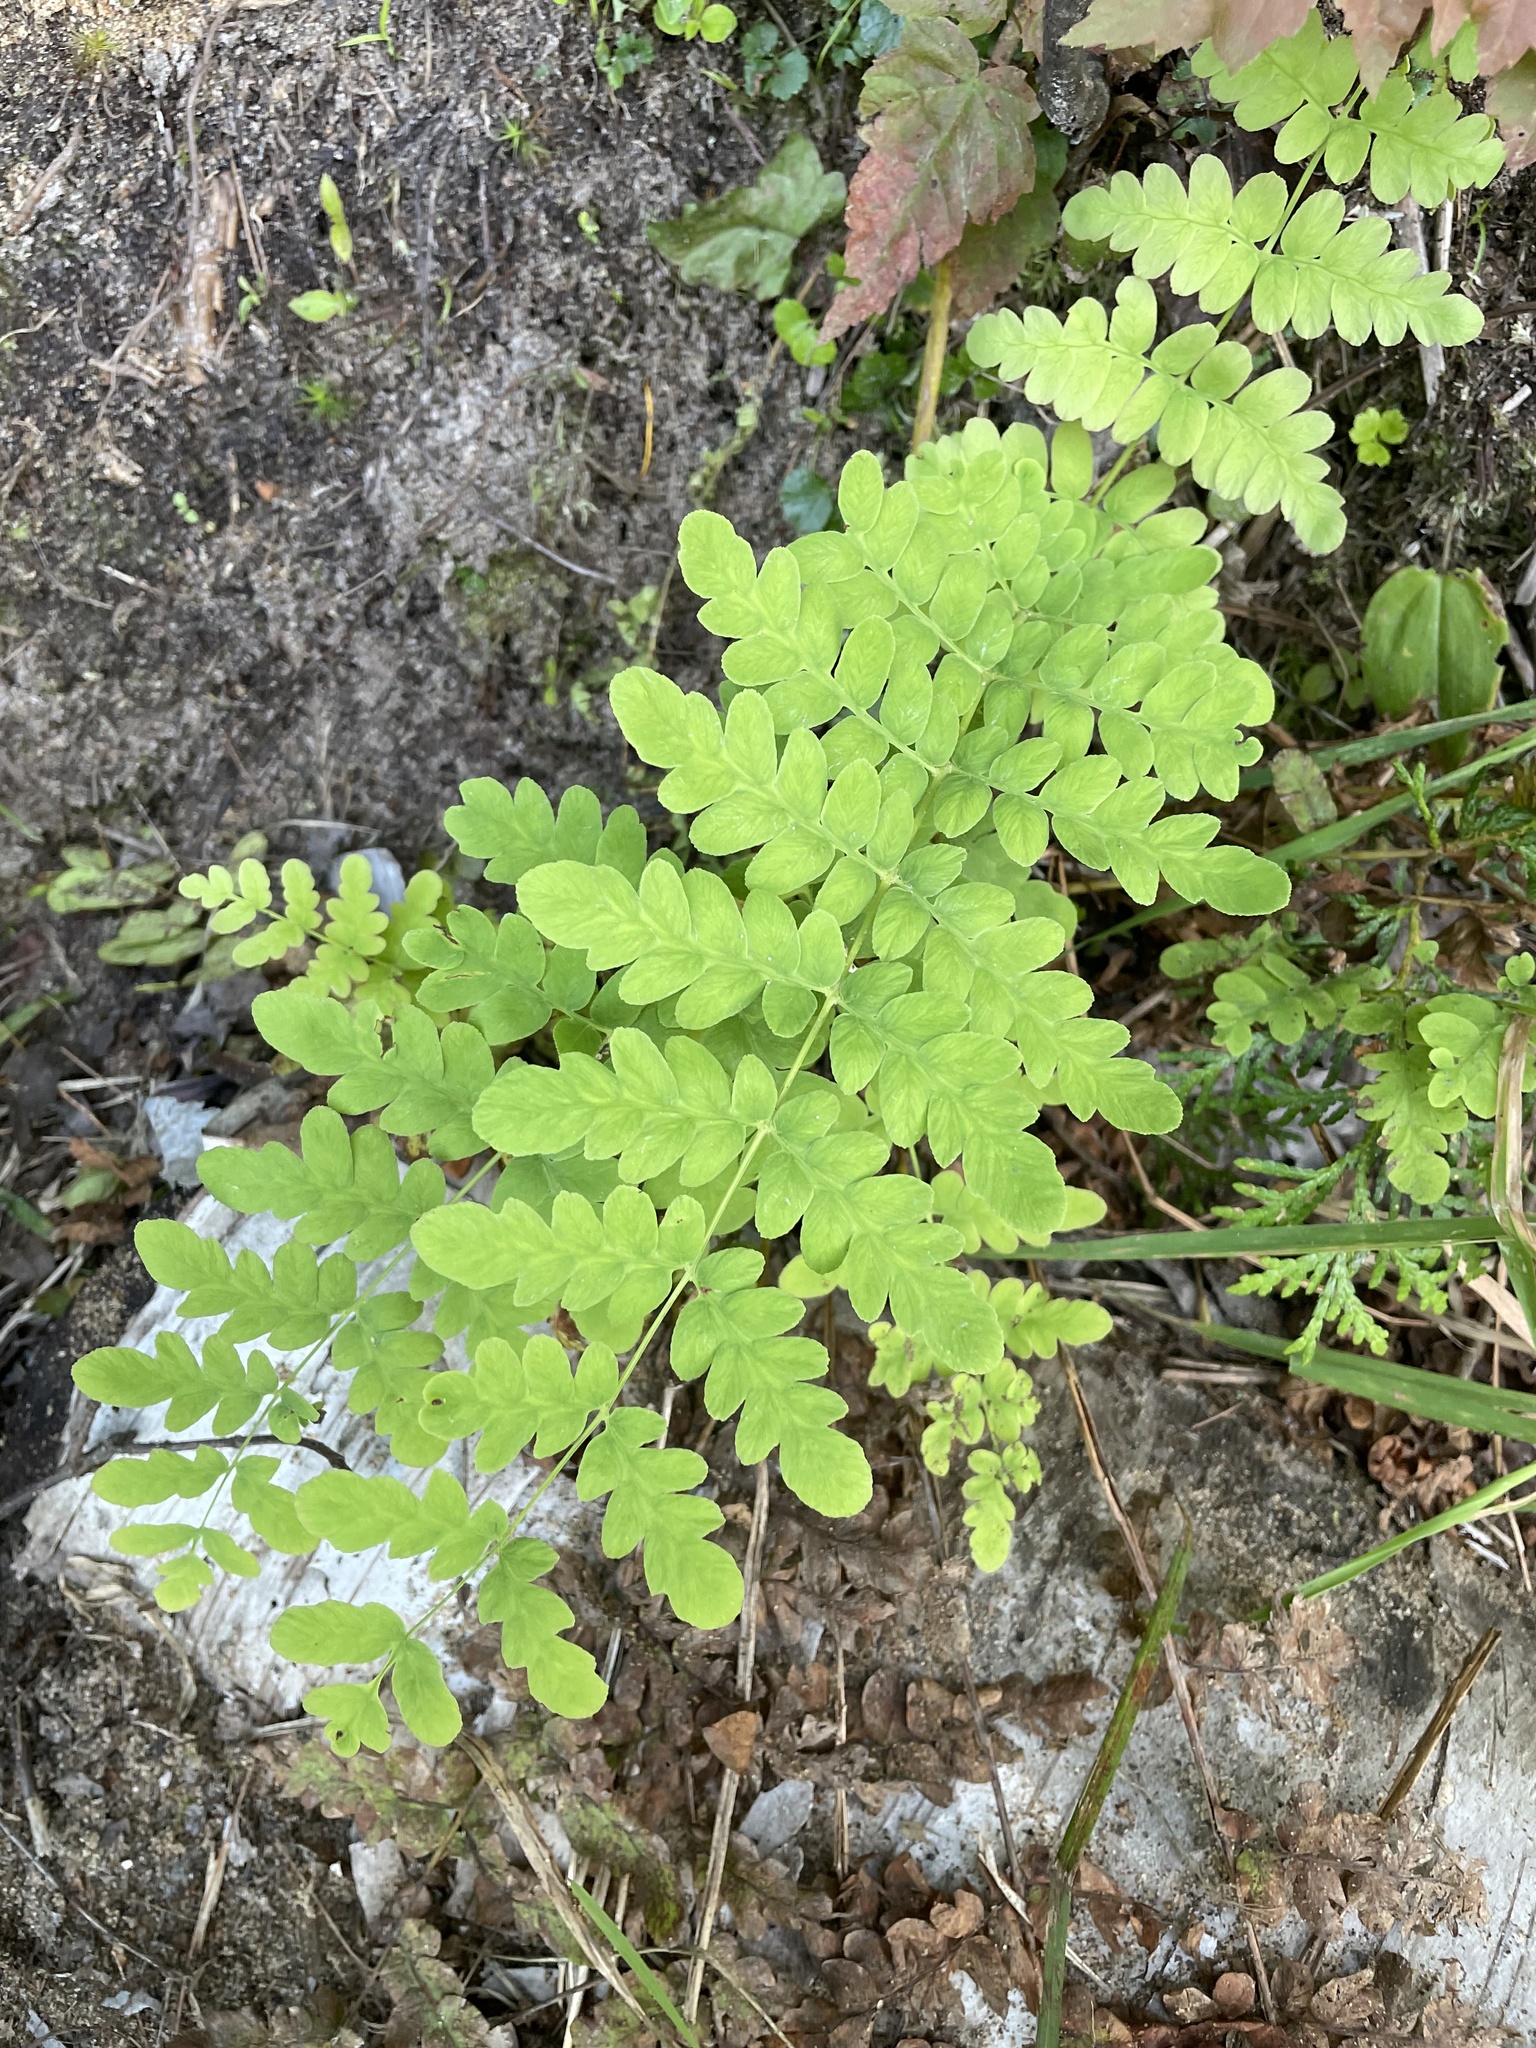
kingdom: Plantae
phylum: Tracheophyta
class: Polypodiopsida
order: Osmundales
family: Osmundaceae
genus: Claytosmunda
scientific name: Claytosmunda claytoniana
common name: Clayton's fern
